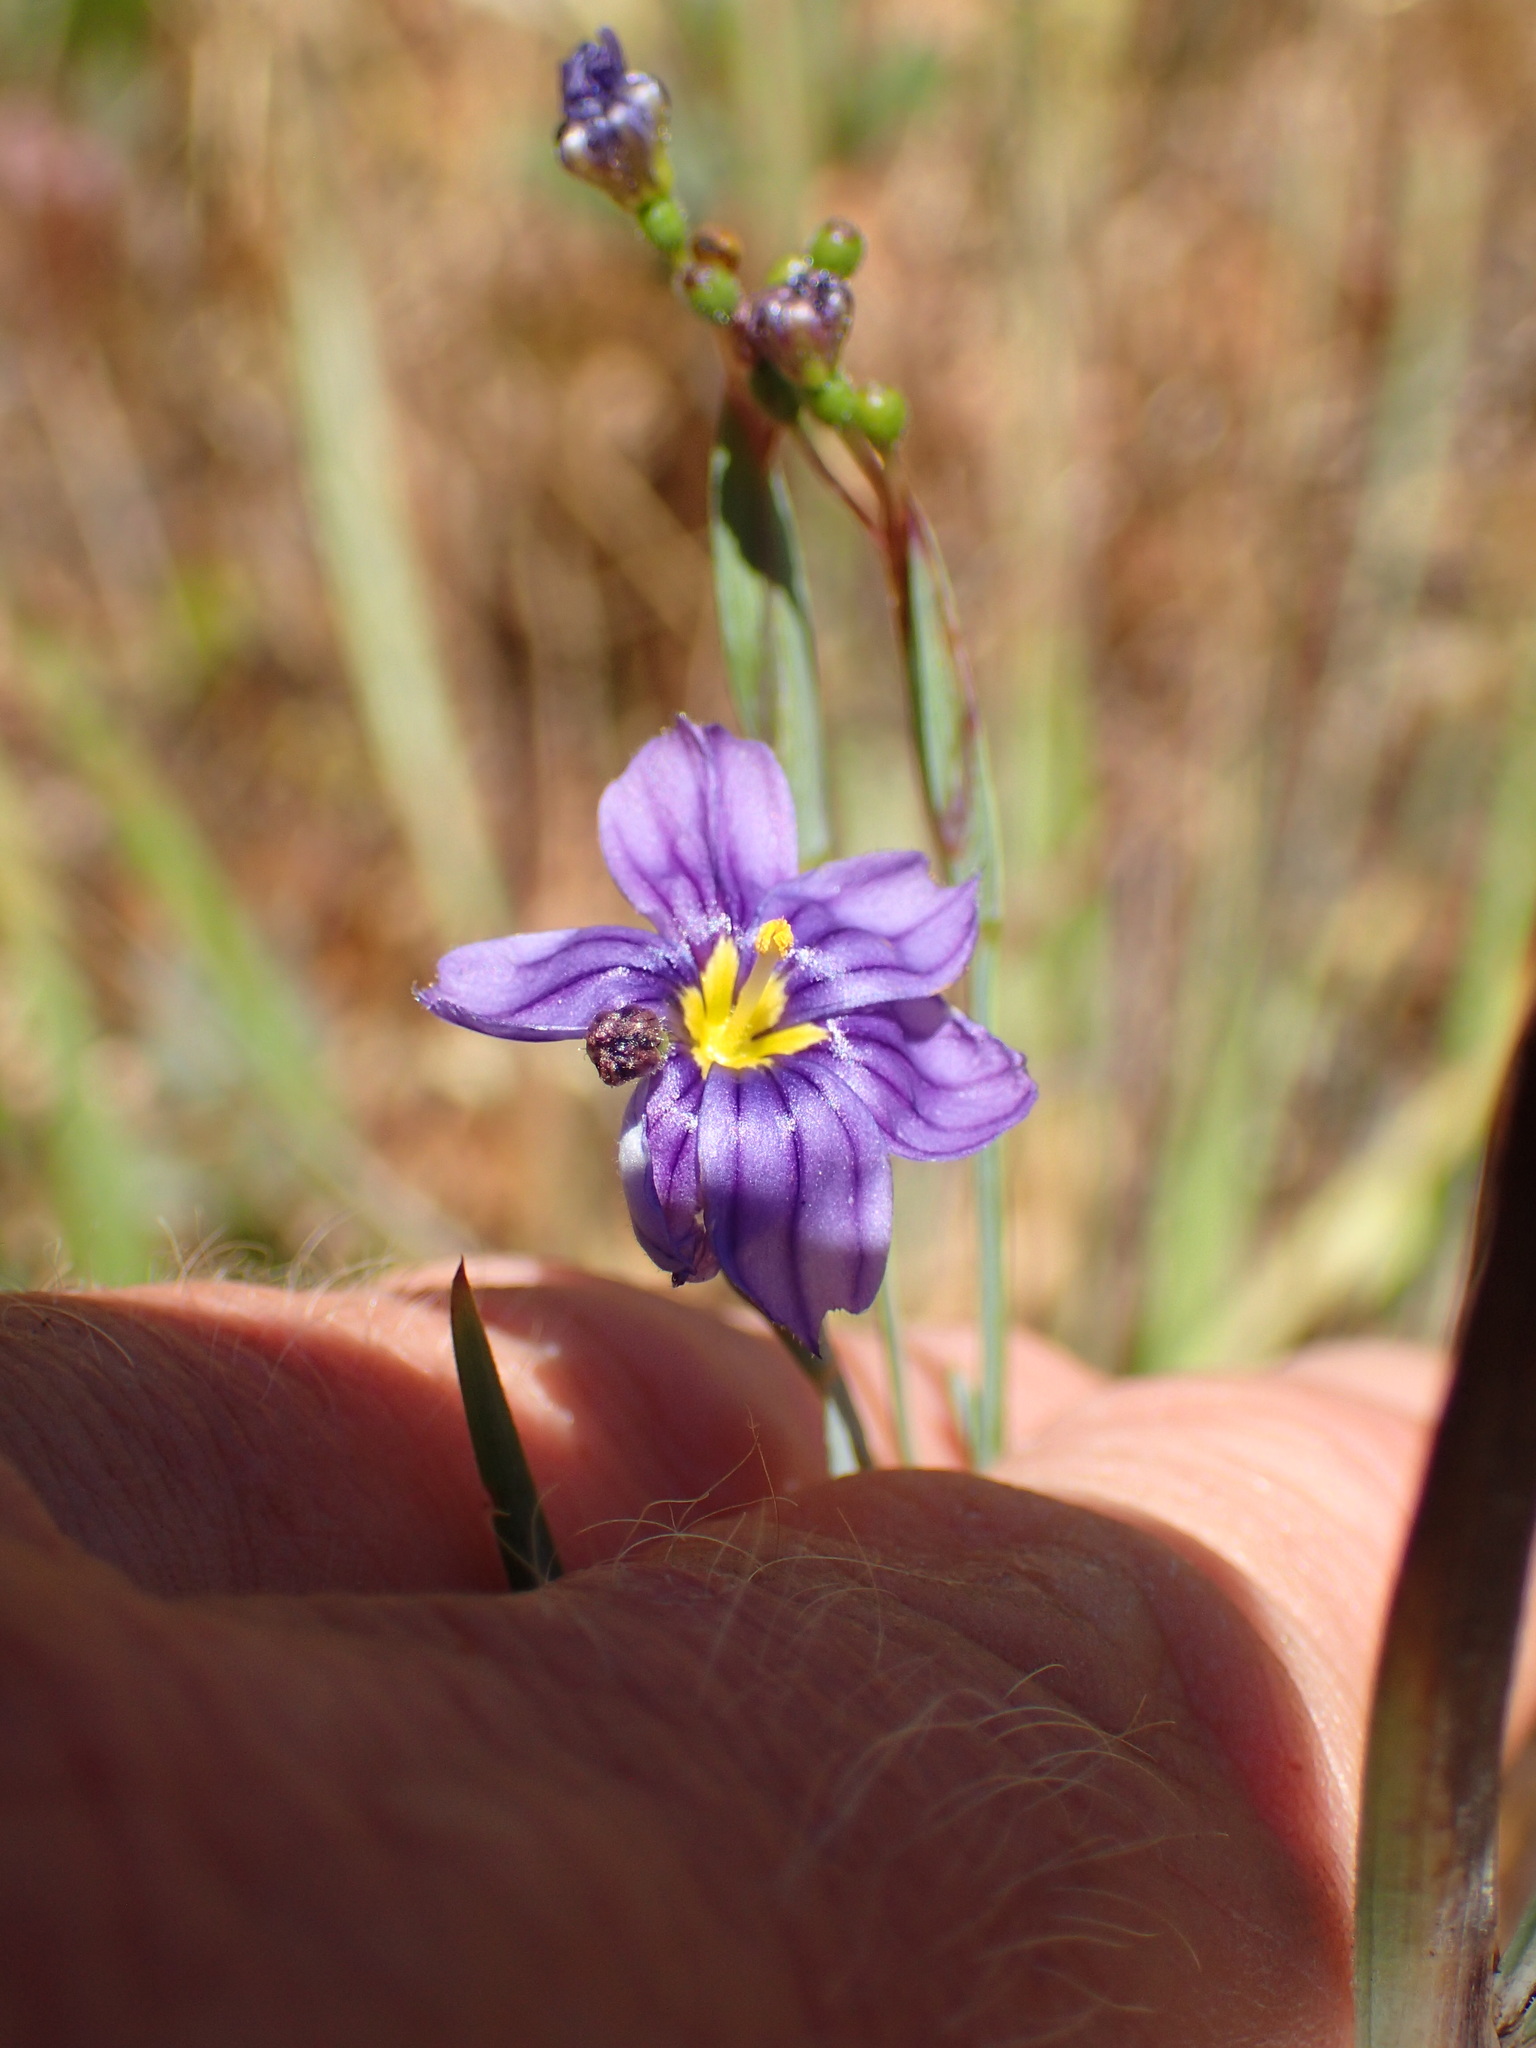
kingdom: Plantae
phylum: Tracheophyta
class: Liliopsida
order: Asparagales
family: Iridaceae
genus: Sisyrinchium
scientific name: Sisyrinchium bellum
